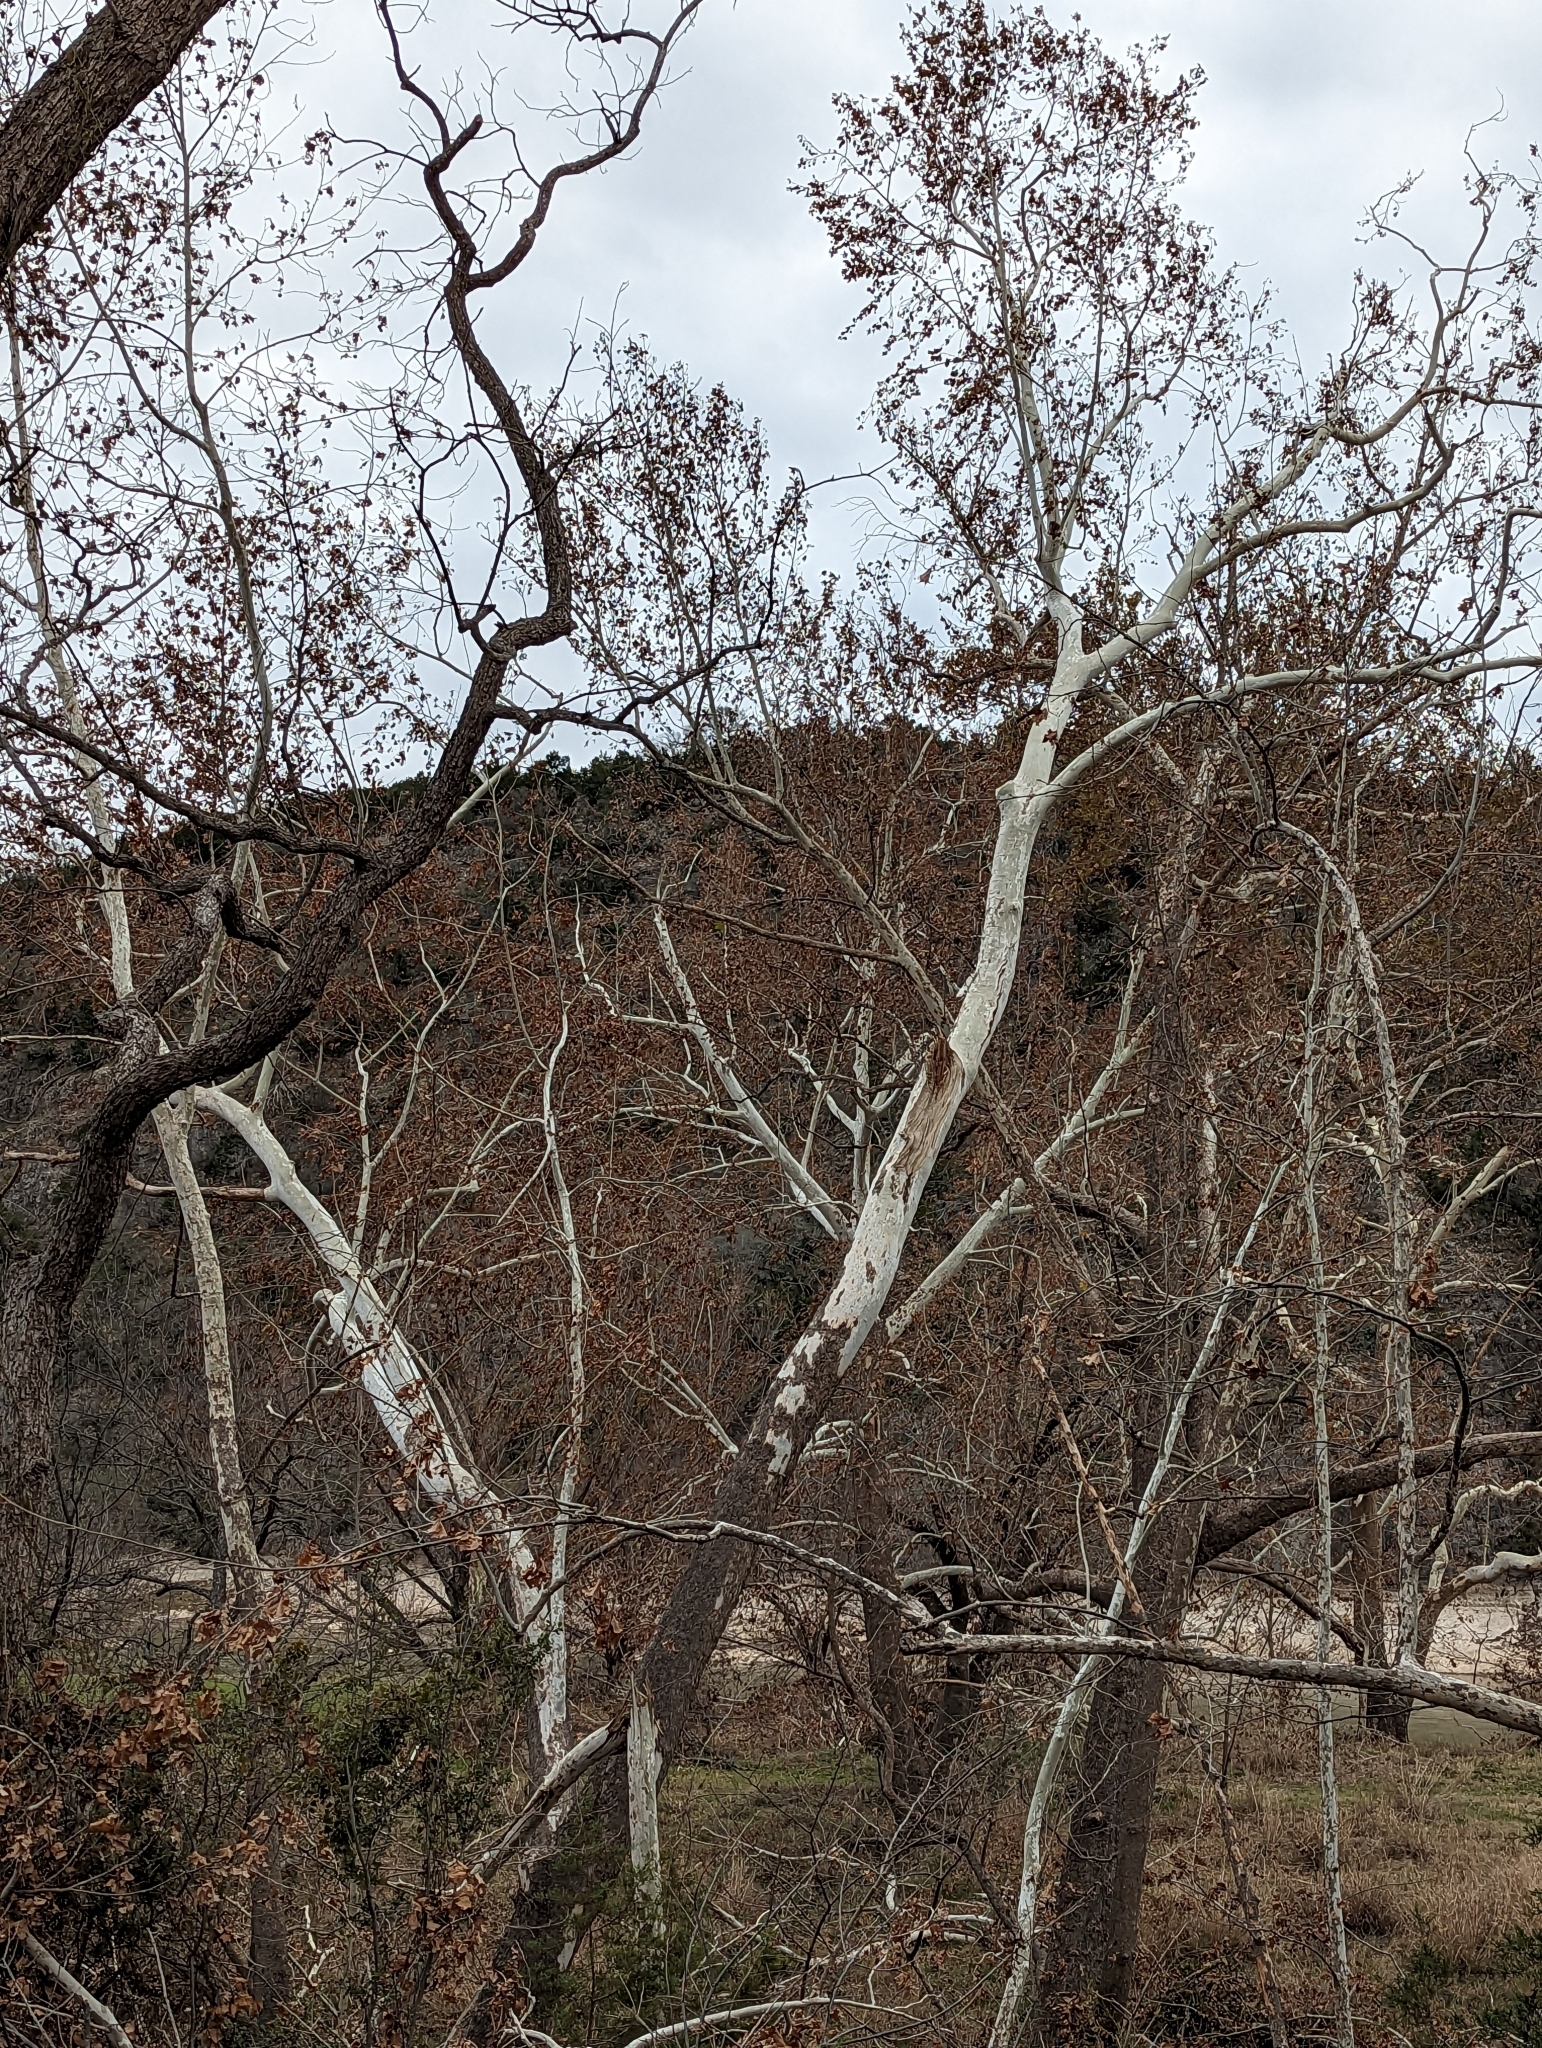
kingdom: Plantae
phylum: Tracheophyta
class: Magnoliopsida
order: Proteales
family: Platanaceae
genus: Platanus
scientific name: Platanus occidentalis
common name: American sycamore
